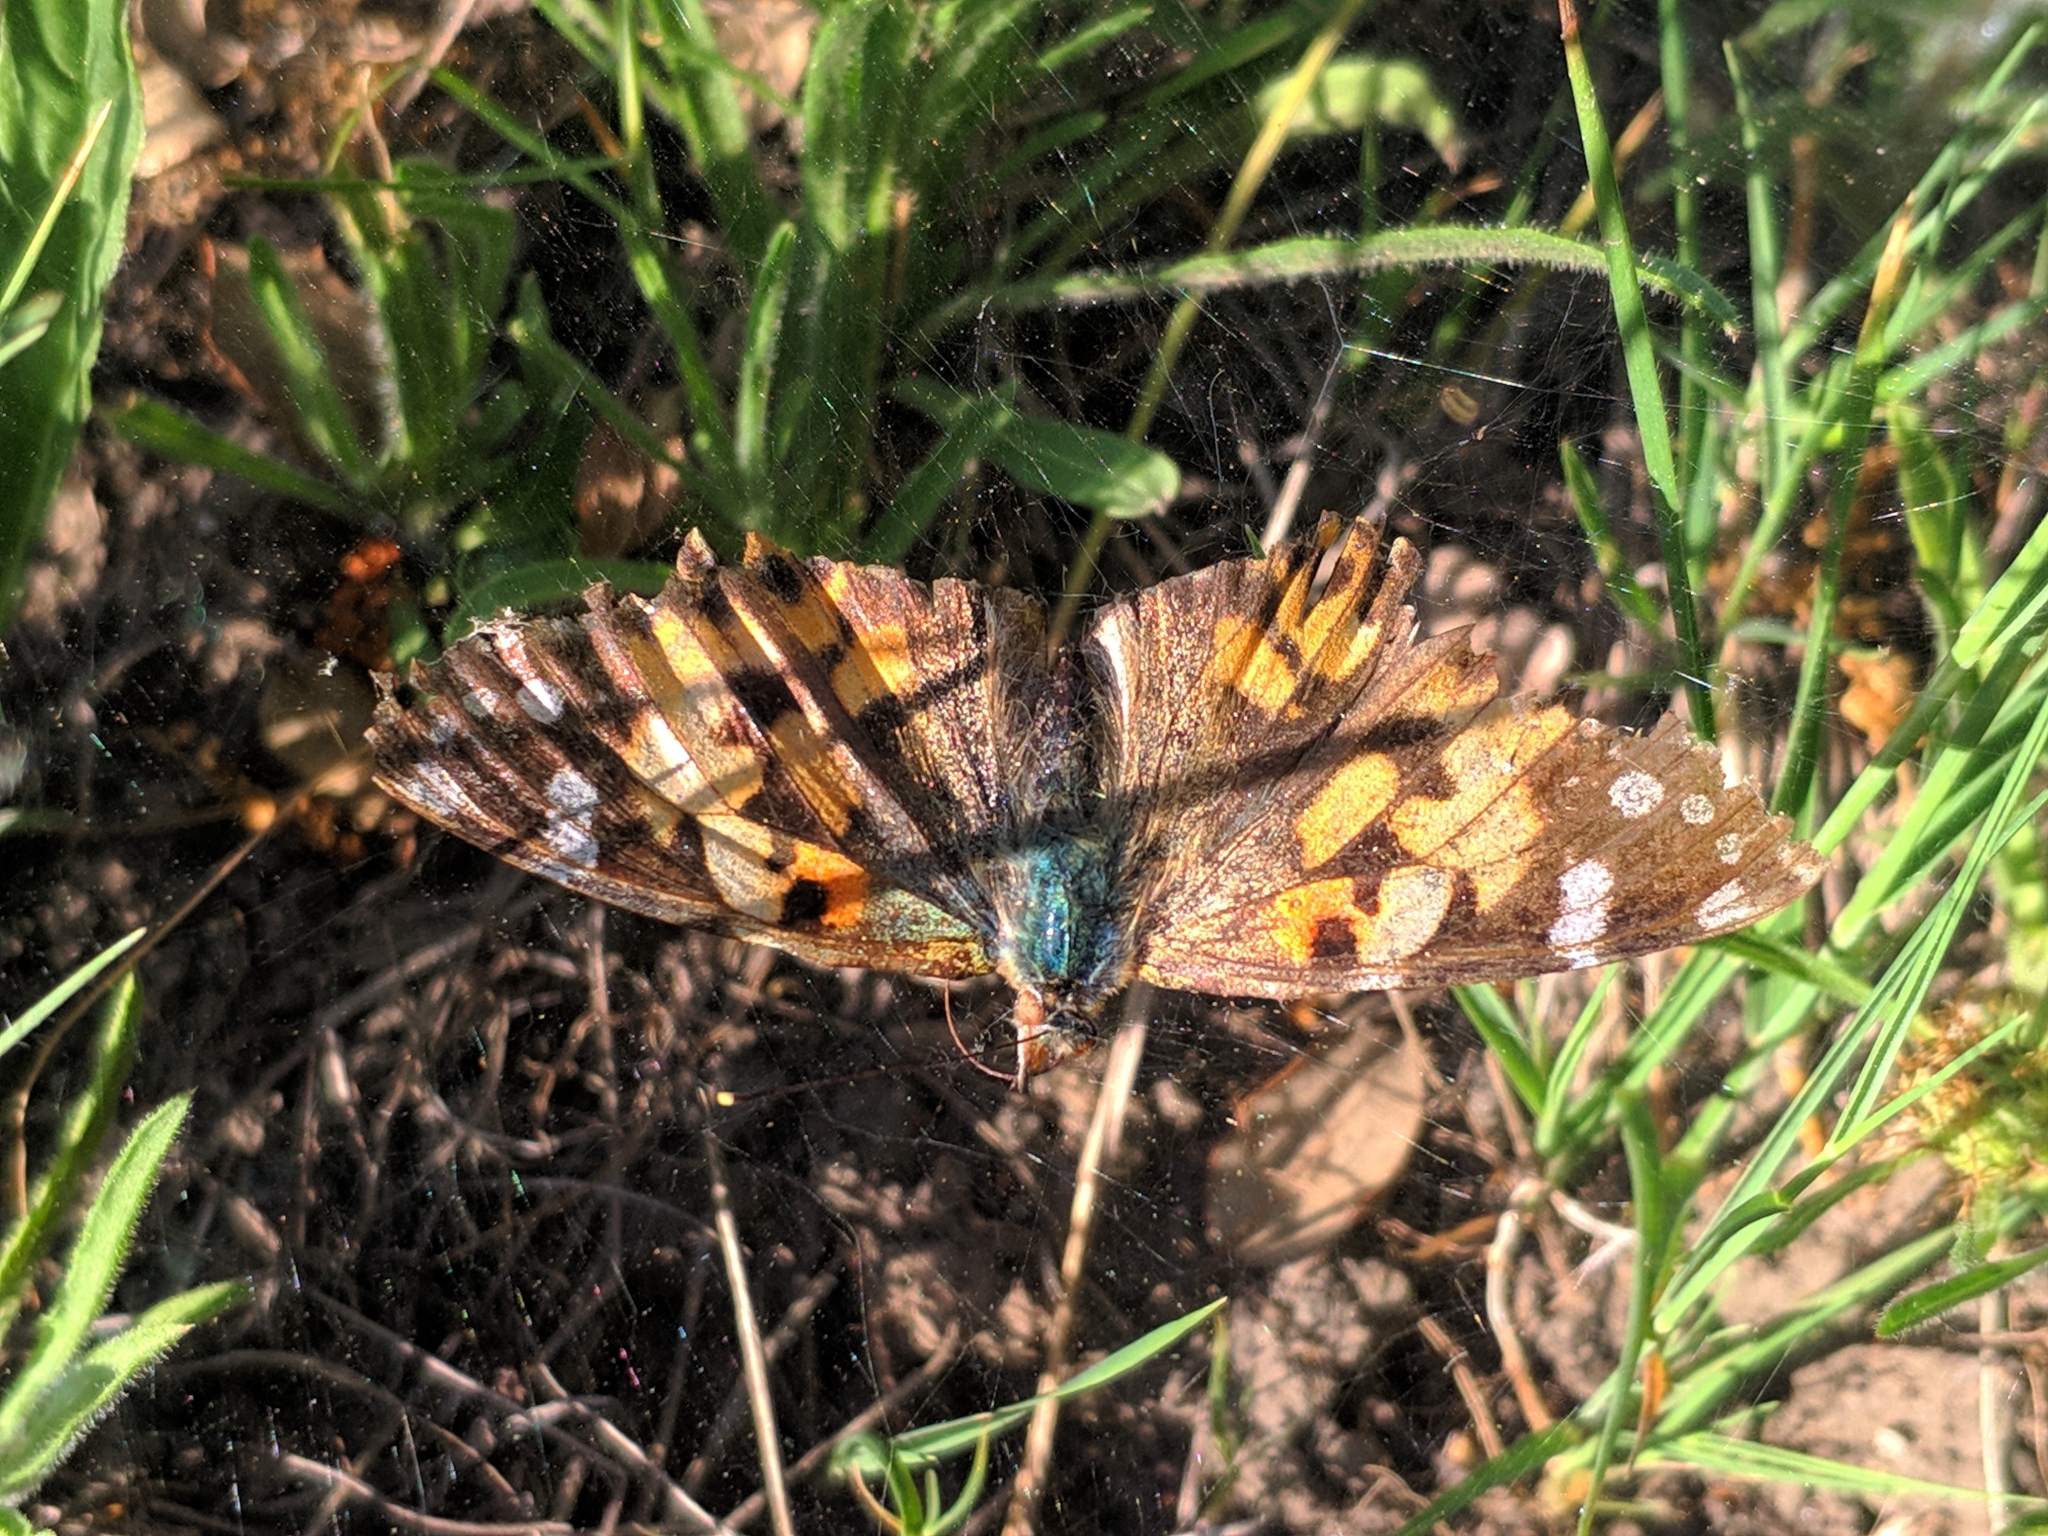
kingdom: Animalia
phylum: Arthropoda
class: Insecta
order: Lepidoptera
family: Nymphalidae
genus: Vanessa
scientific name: Vanessa cardui
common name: Painted lady
